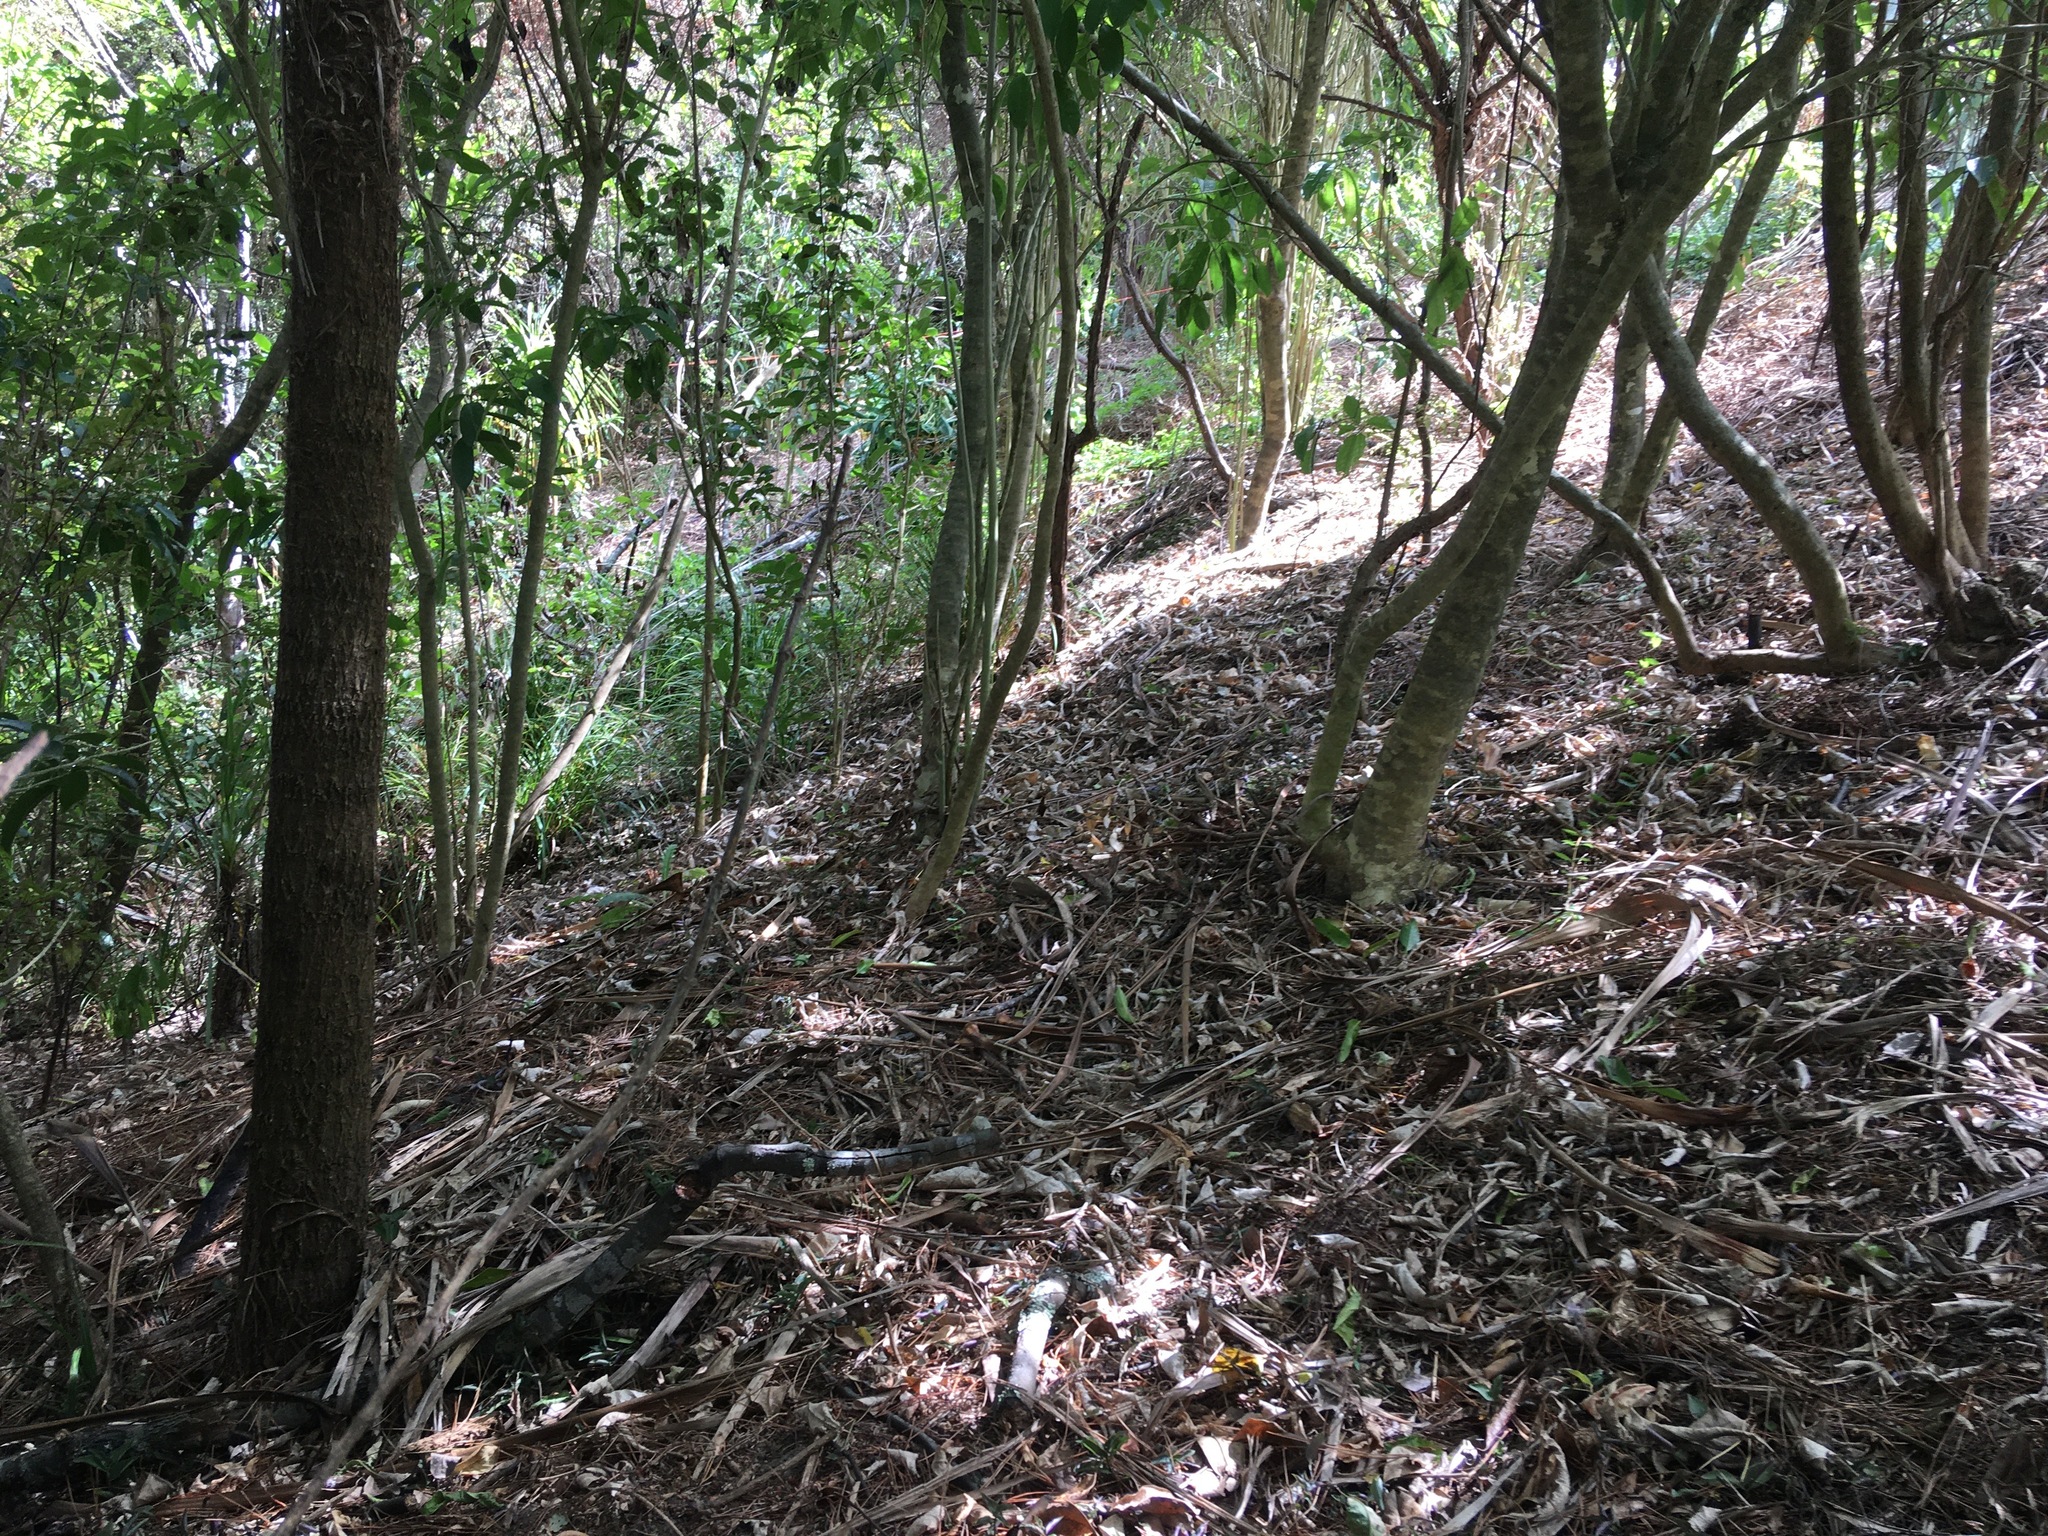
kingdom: Plantae
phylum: Tracheophyta
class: Magnoliopsida
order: Malpighiales
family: Violaceae
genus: Melicytus
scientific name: Melicytus ramiflorus
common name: Mahoe
